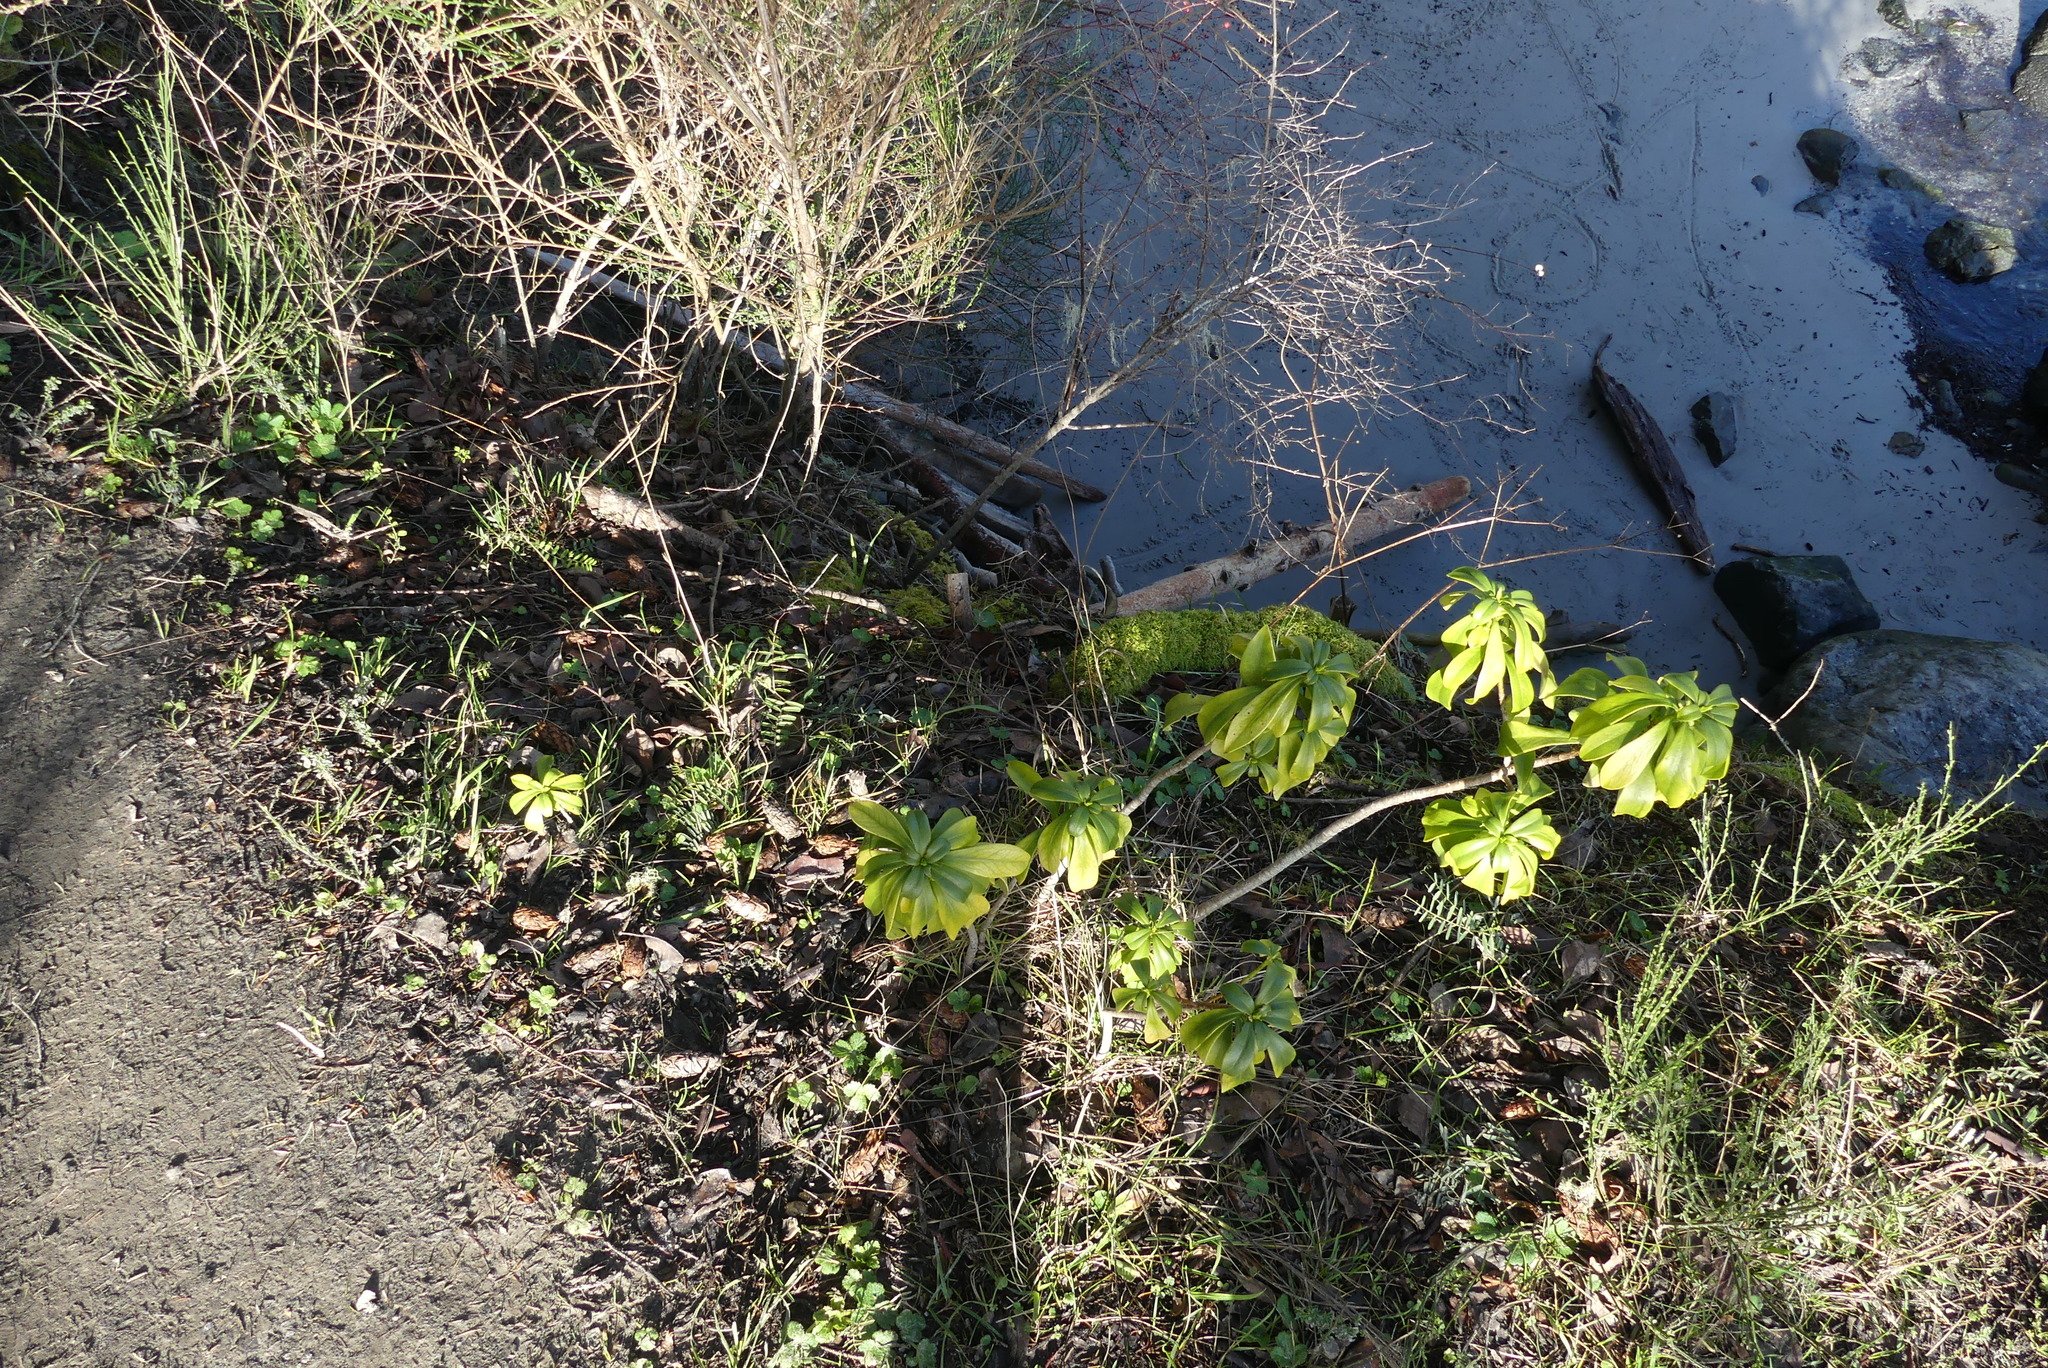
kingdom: Plantae
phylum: Tracheophyta
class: Magnoliopsida
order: Malvales
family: Thymelaeaceae
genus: Daphne
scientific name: Daphne laureola
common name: Spurge-laurel
